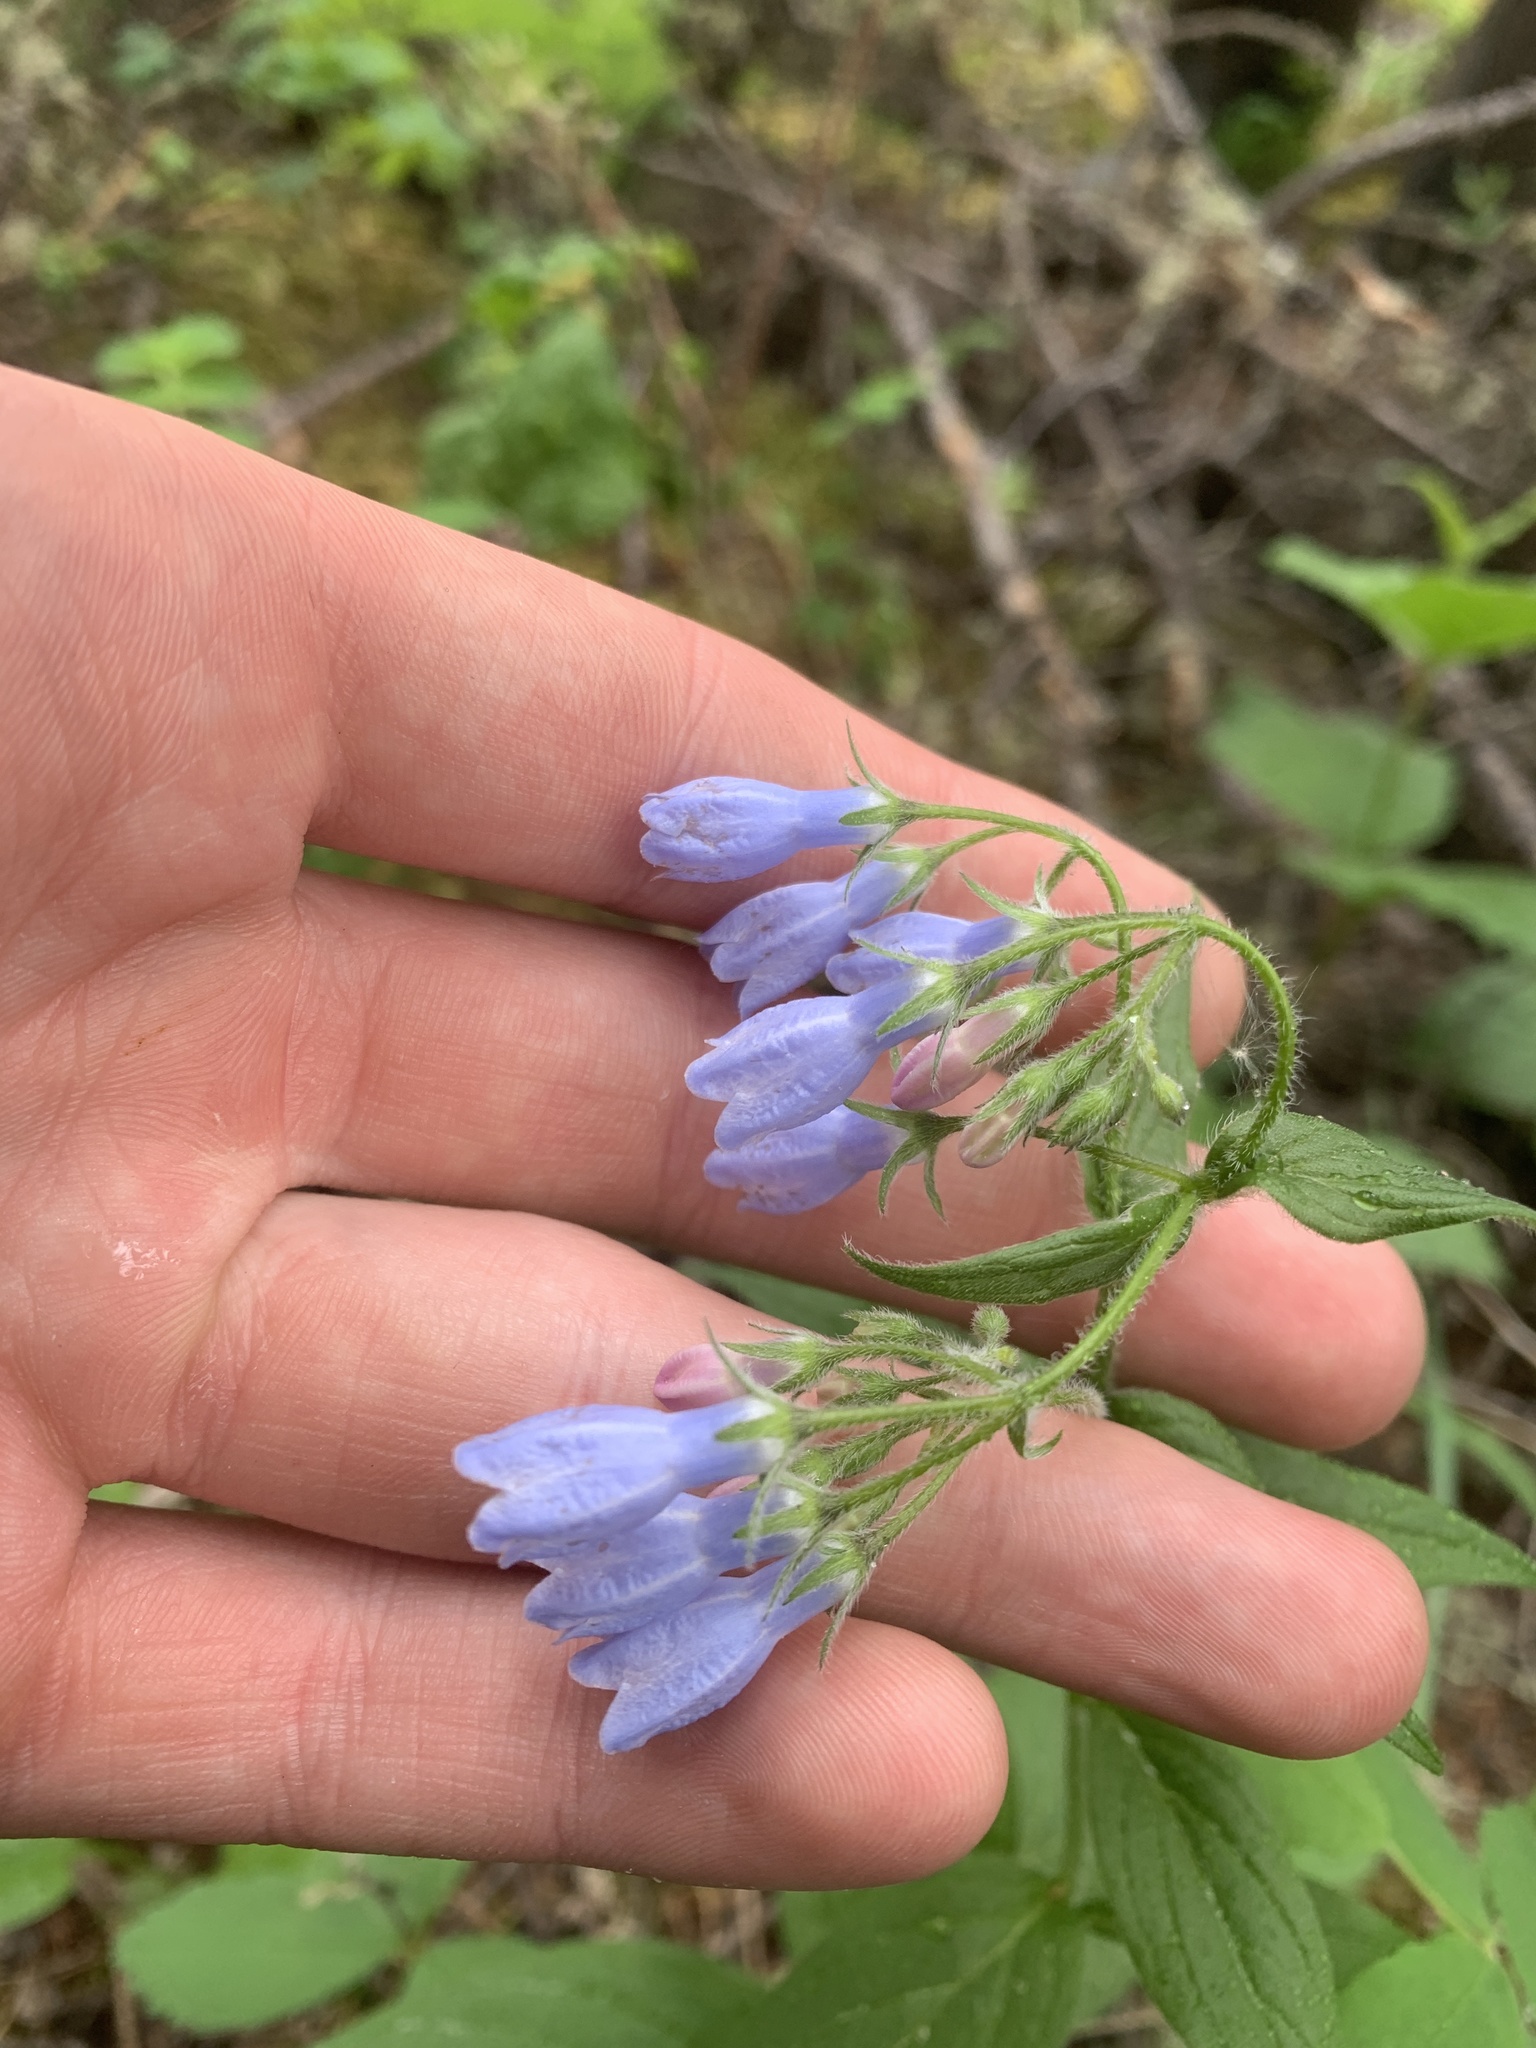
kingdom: Plantae
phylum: Tracheophyta
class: Magnoliopsida
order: Boraginales
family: Boraginaceae
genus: Mertensia
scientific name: Mertensia paniculata
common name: Panicled bluebells
